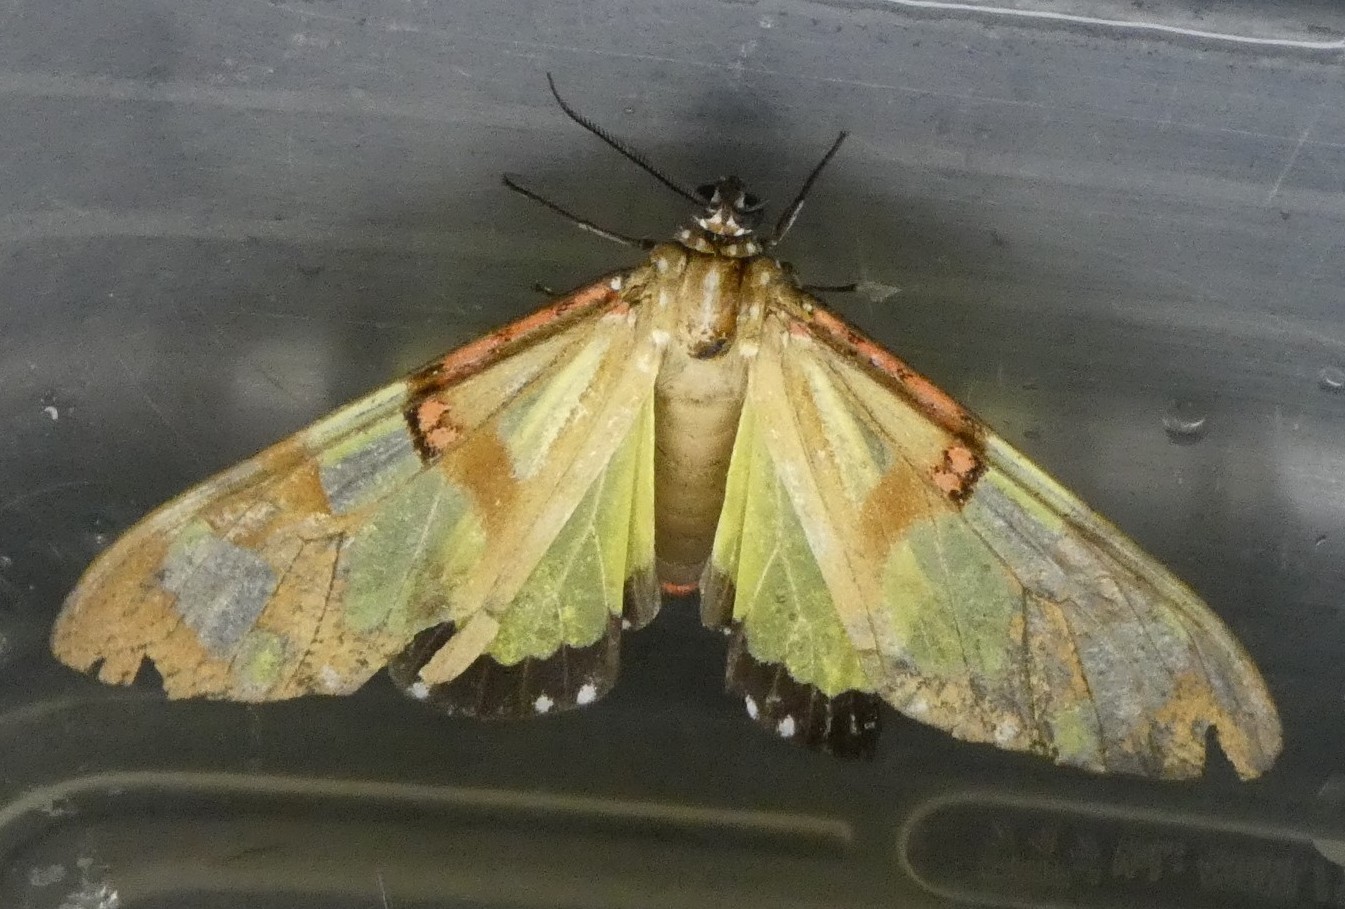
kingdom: Animalia
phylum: Arthropoda
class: Insecta
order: Lepidoptera
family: Erebidae
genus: Phaloe
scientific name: Phaloe cruenta
